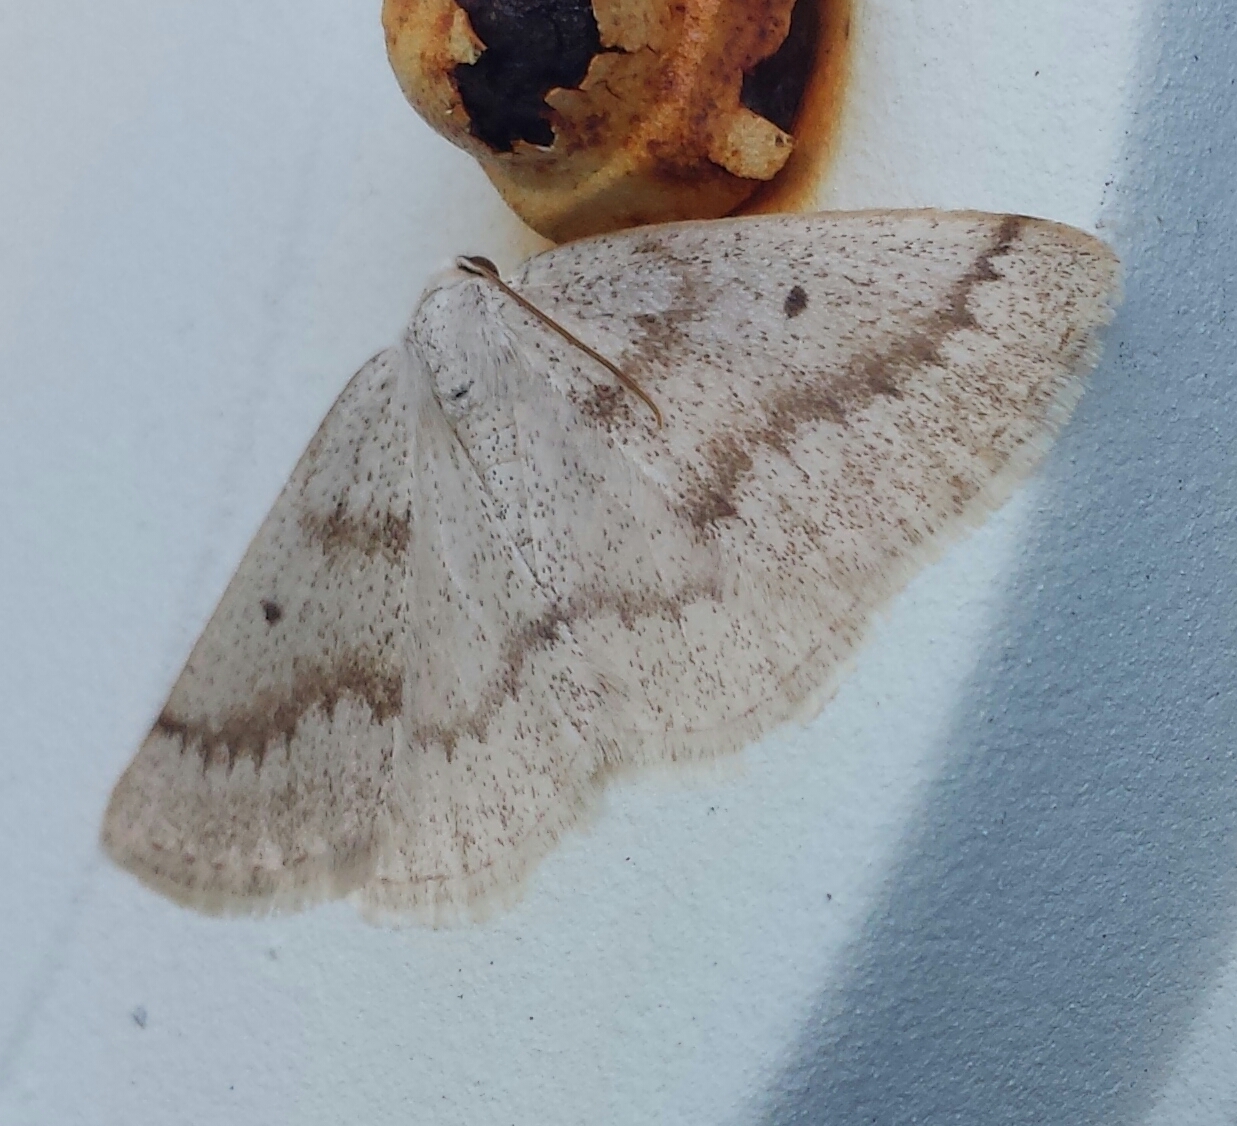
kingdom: Animalia
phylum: Arthropoda
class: Insecta
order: Lepidoptera
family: Geometridae
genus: Lomographa
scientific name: Lomographa glomeraria
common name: Gray spring moth
